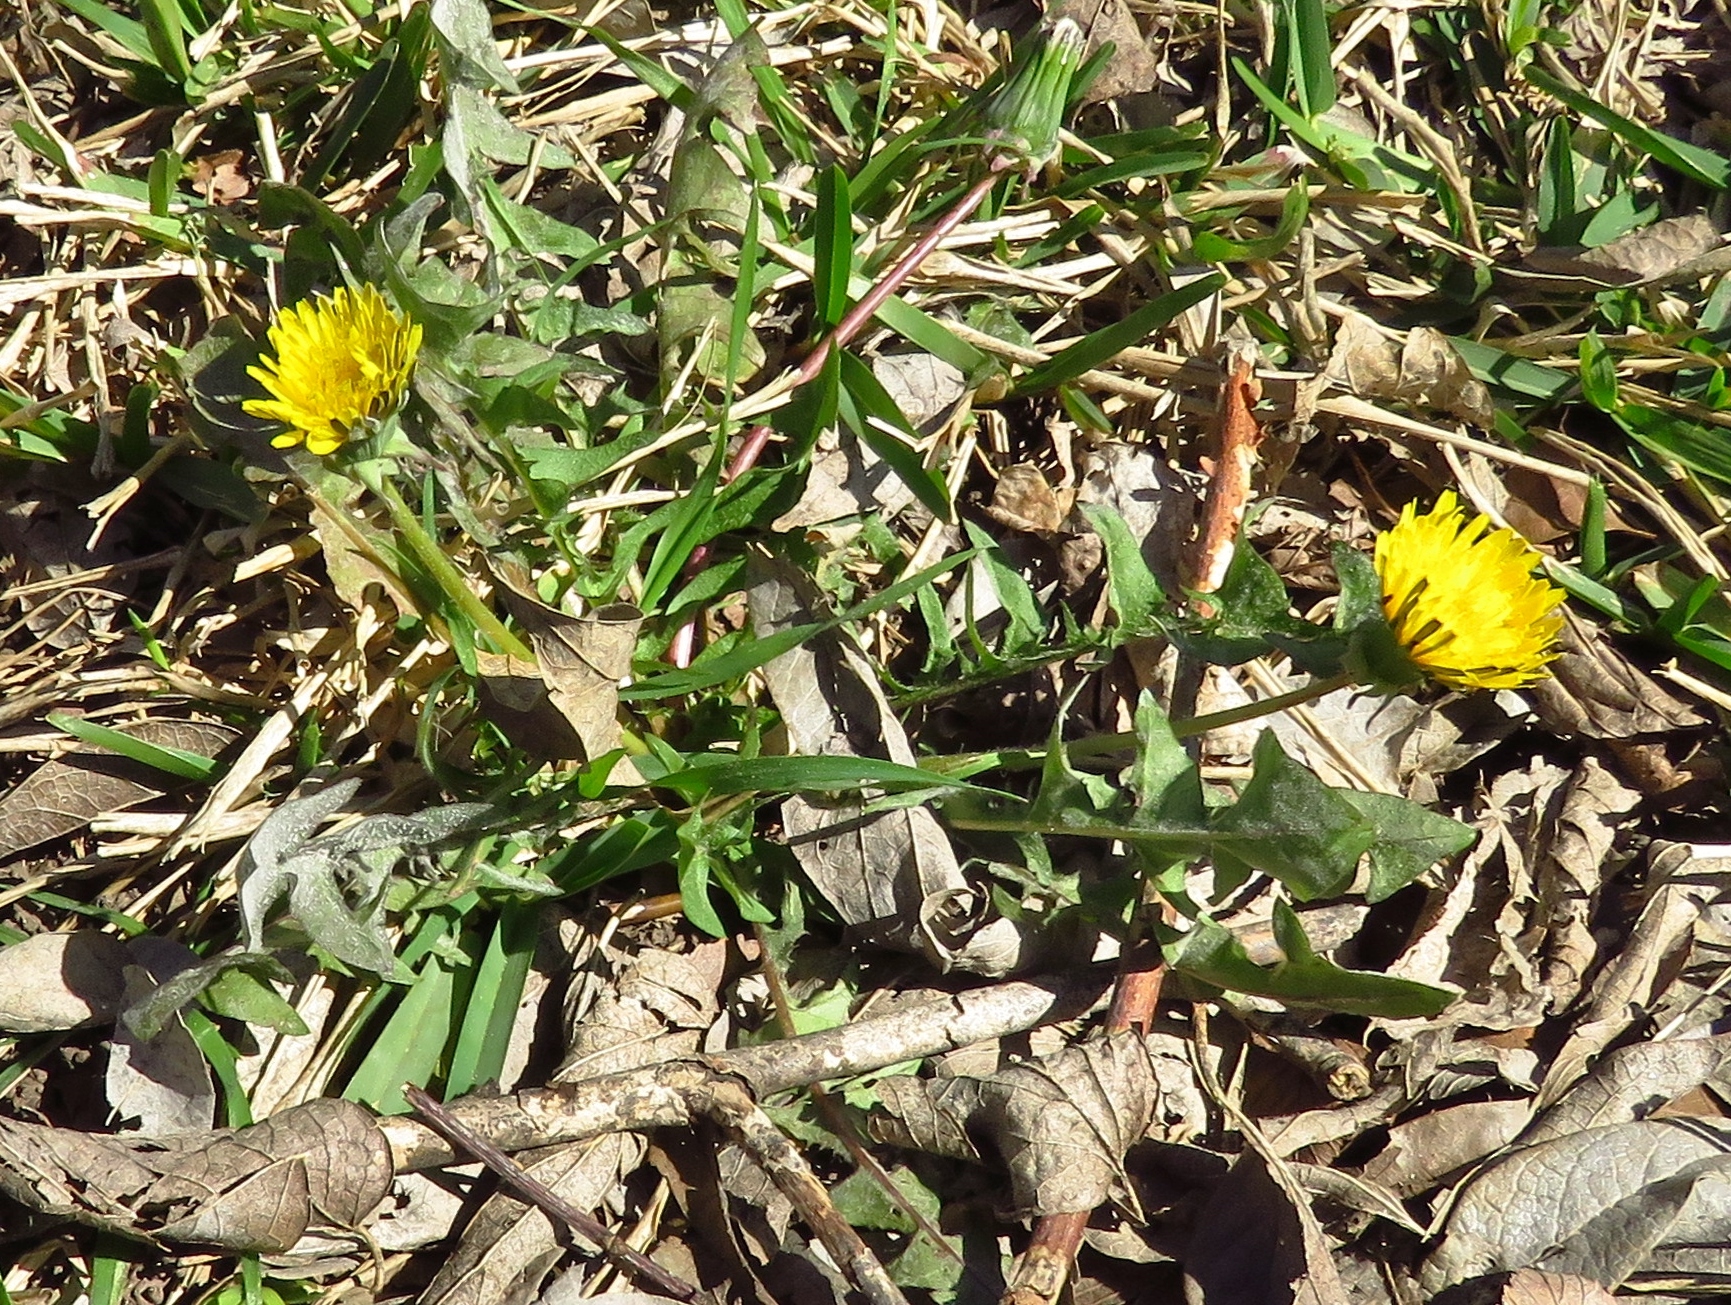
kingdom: Plantae
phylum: Tracheophyta
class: Magnoliopsida
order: Asterales
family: Asteraceae
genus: Taraxacum
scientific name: Taraxacum officinale
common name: Common dandelion
